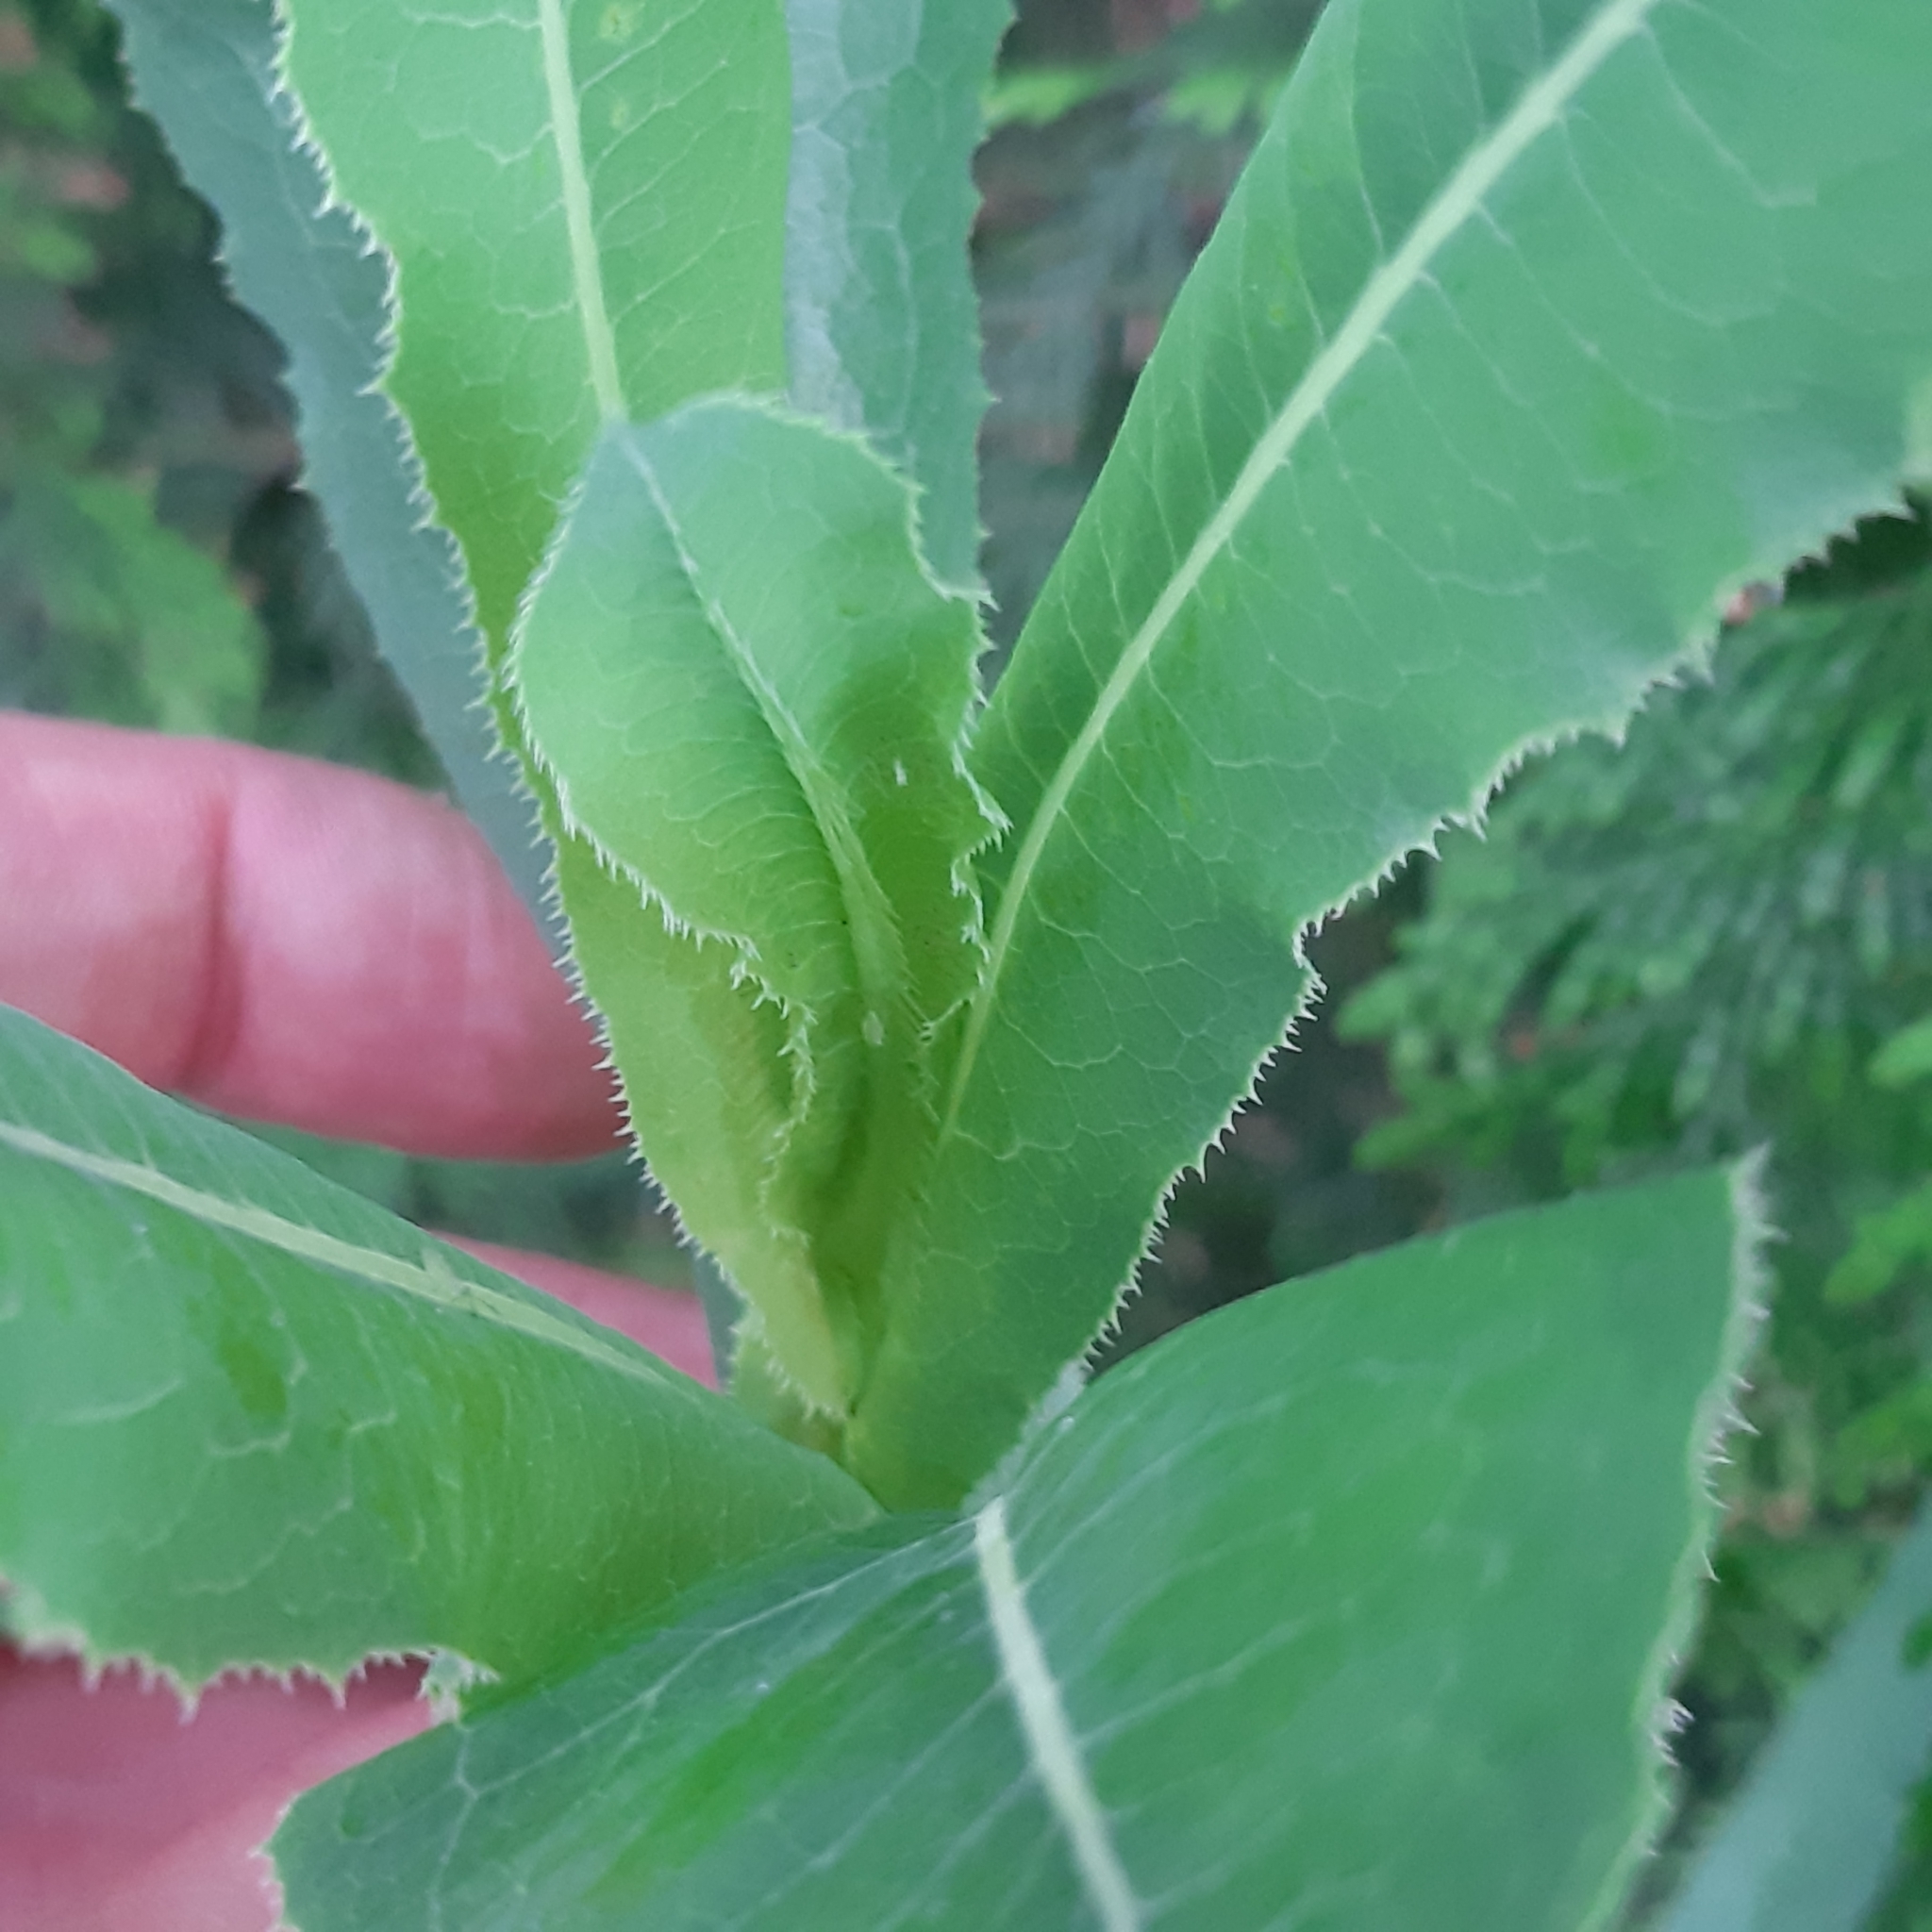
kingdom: Plantae
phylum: Tracheophyta
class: Magnoliopsida
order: Asterales
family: Asteraceae
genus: Lactuca
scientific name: Lactuca serriola
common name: Prickly lettuce
